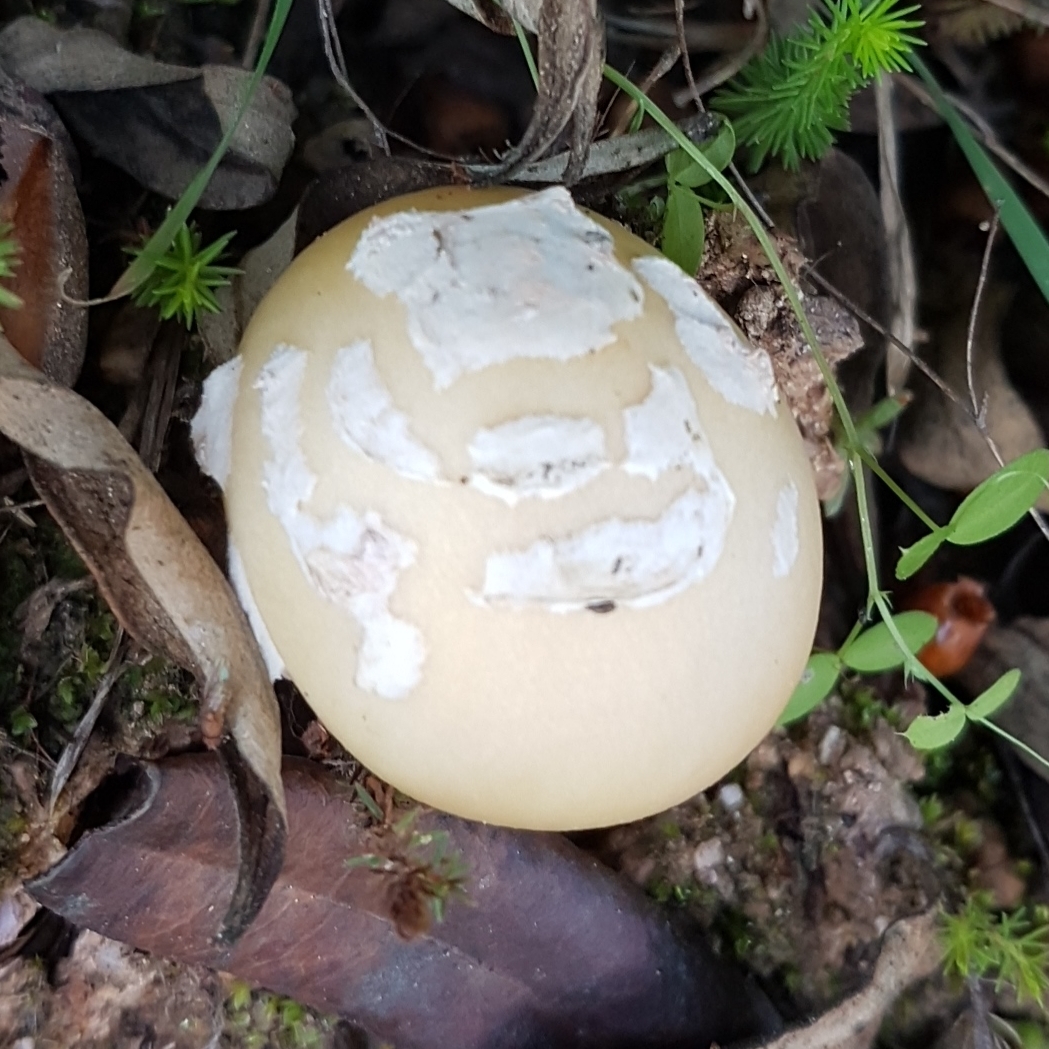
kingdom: Fungi
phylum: Basidiomycota
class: Agaricomycetes
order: Agaricales
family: Amanitaceae
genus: Amanita
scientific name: Amanita gemmata
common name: Jewelled amanita
